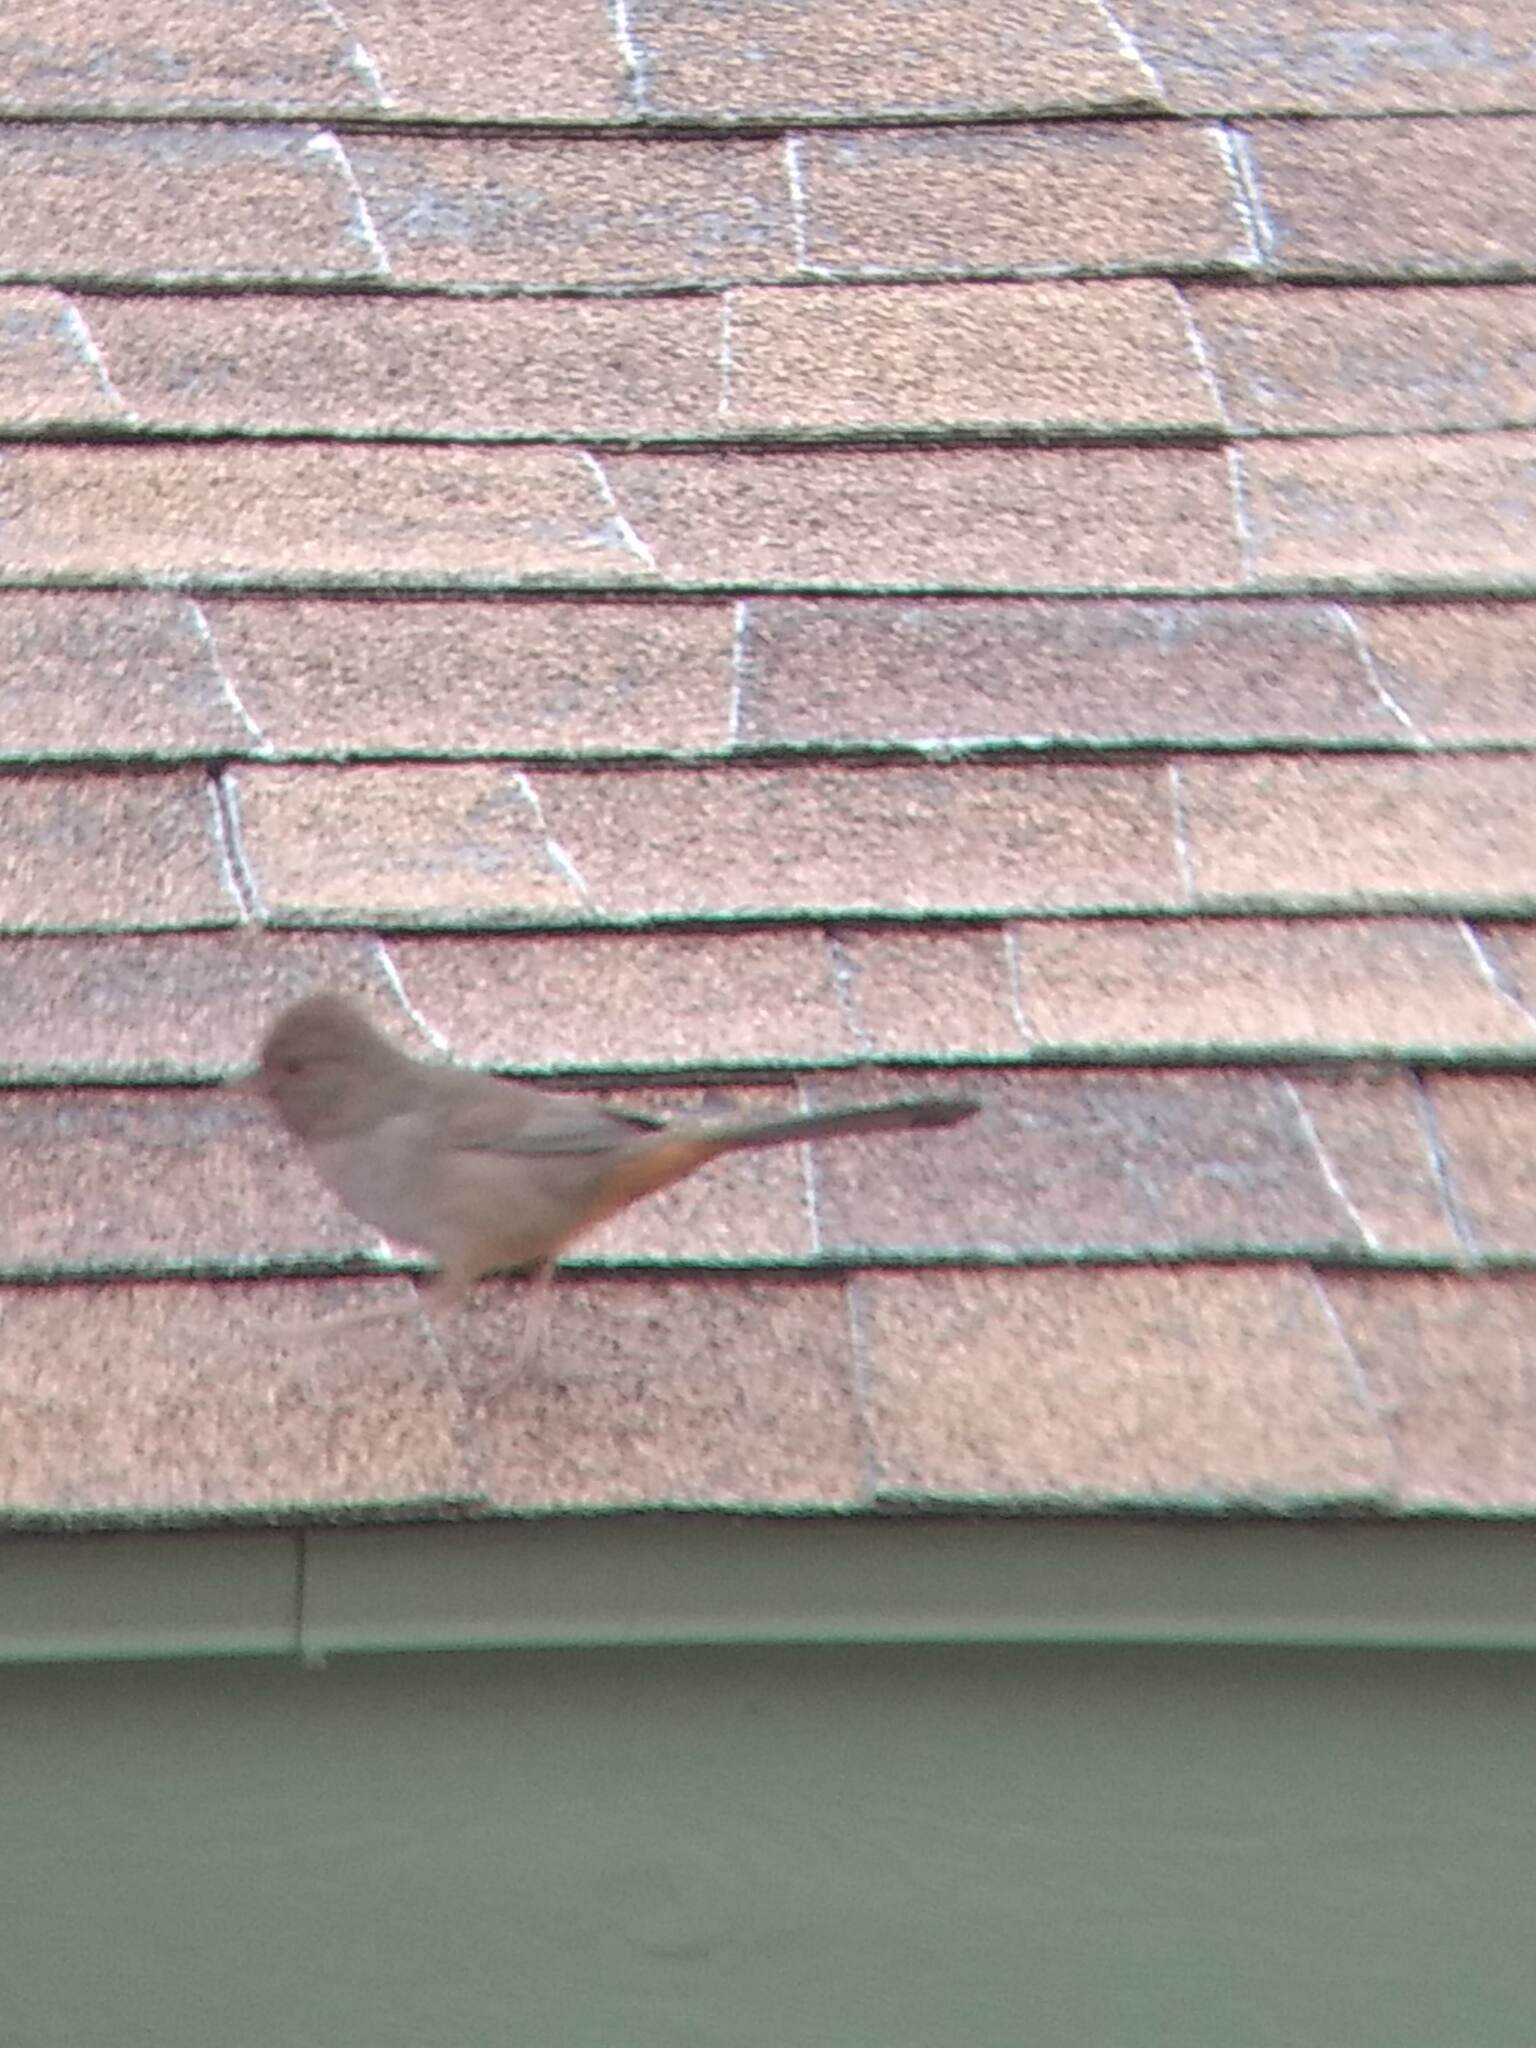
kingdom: Animalia
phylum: Chordata
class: Aves
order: Passeriformes
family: Passerellidae
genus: Melozone
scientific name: Melozone crissalis
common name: California towhee
